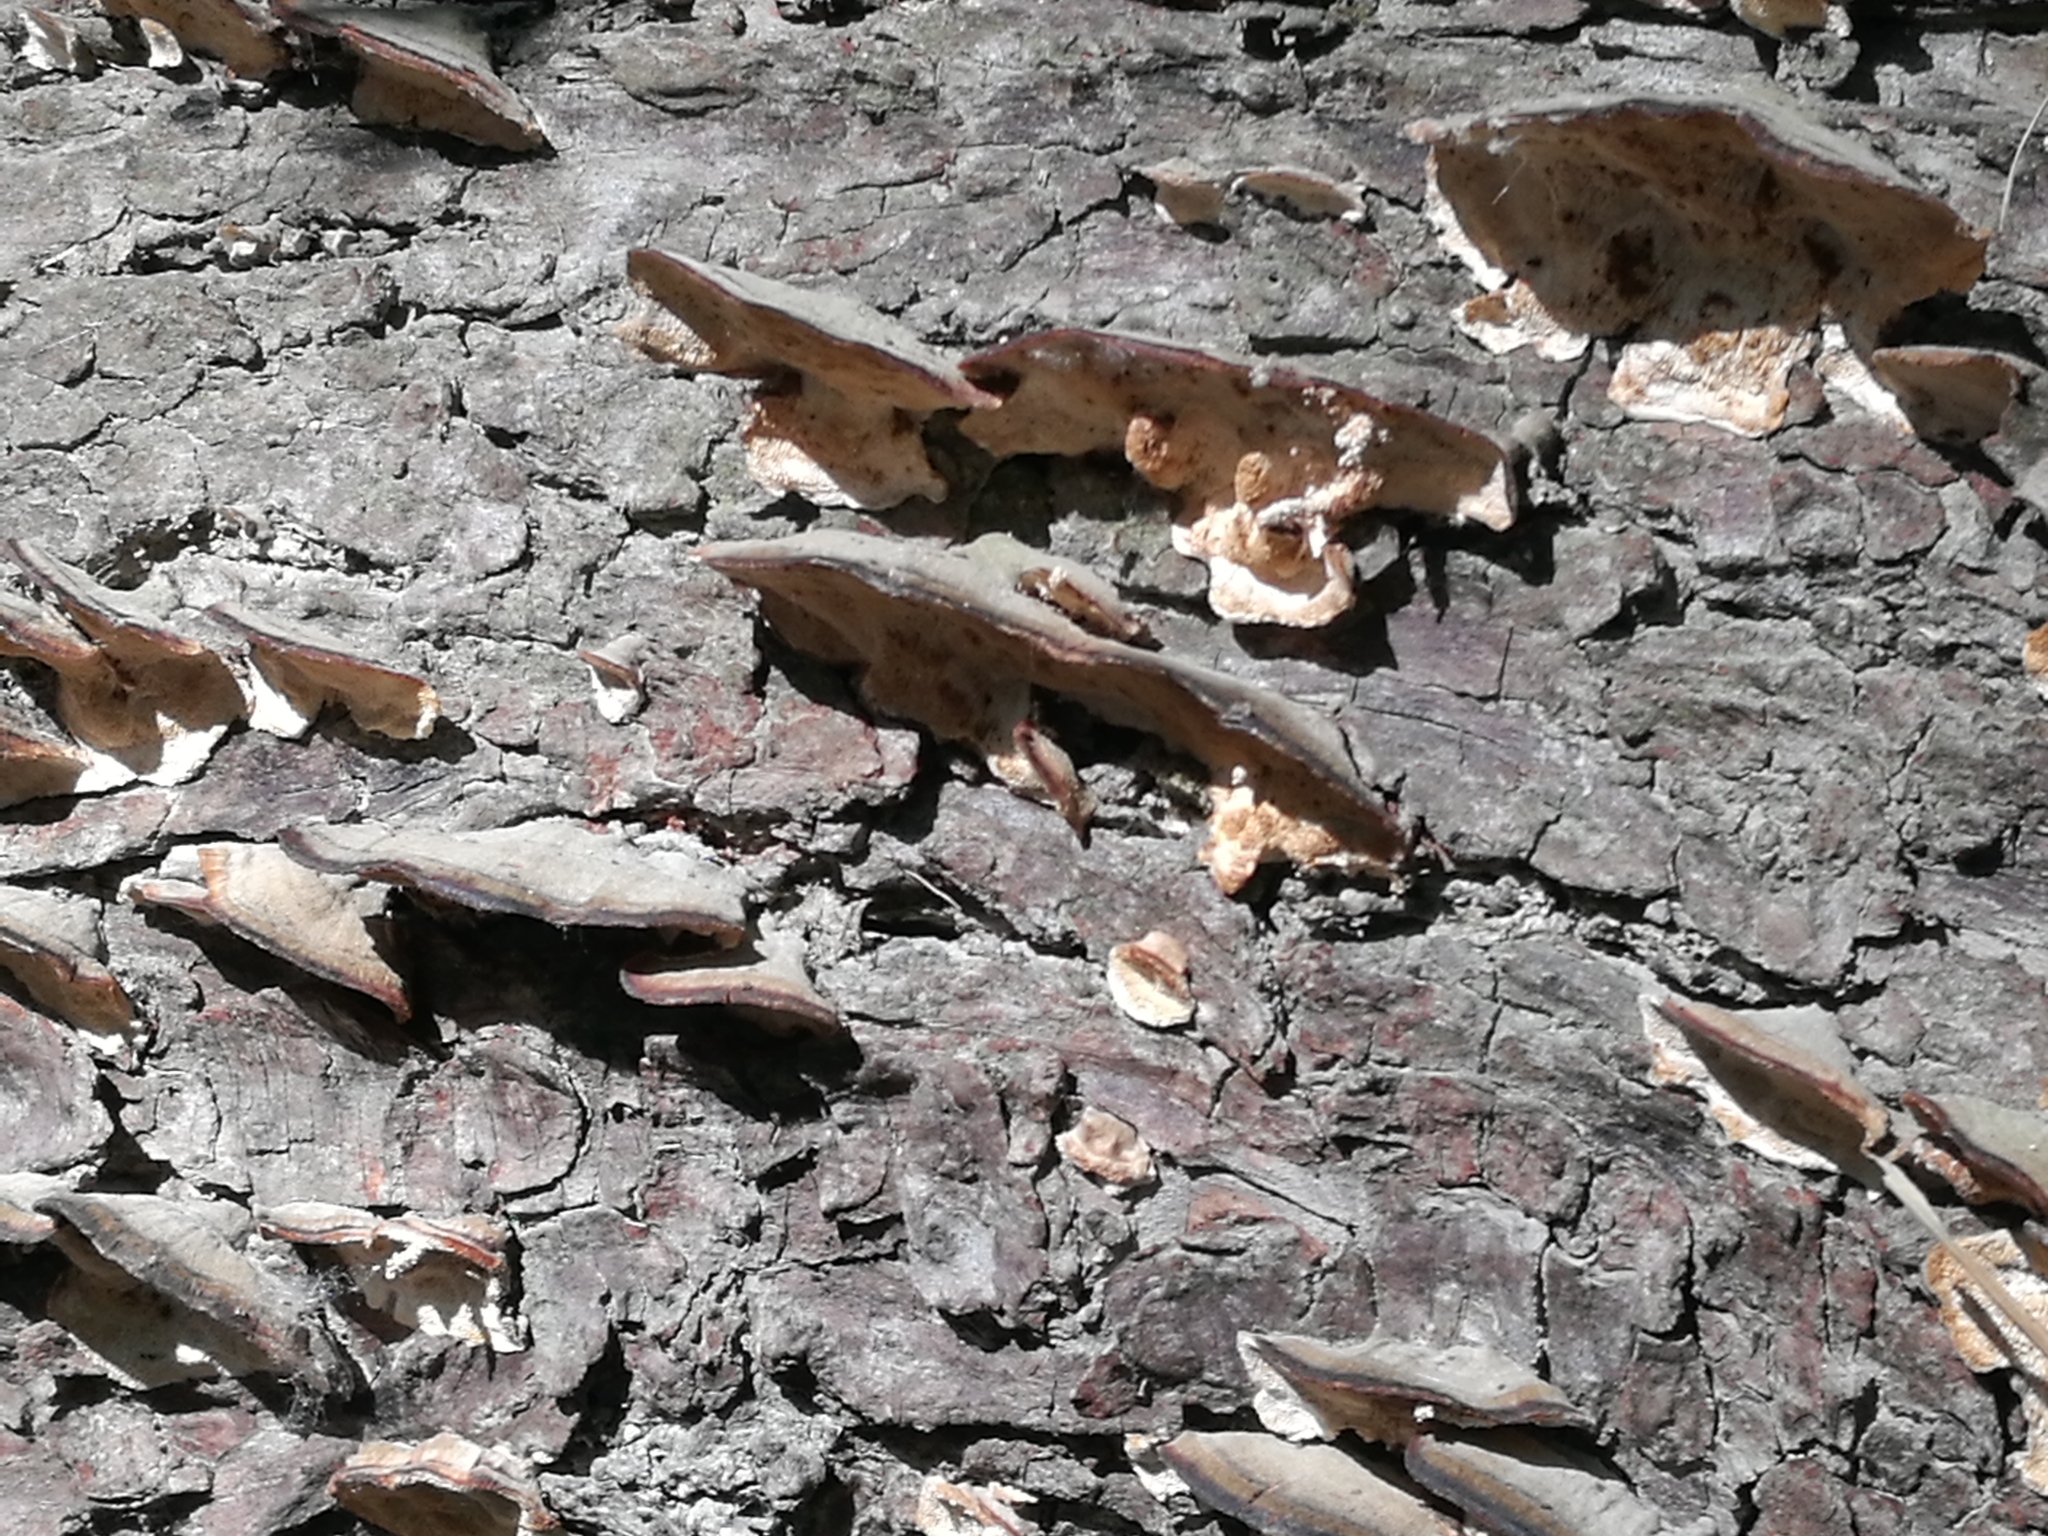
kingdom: Fungi
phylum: Basidiomycota
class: Agaricomycetes
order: Polyporales
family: Polyporaceae
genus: Trametes
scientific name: Trametes versicolor
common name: Turkeytail
